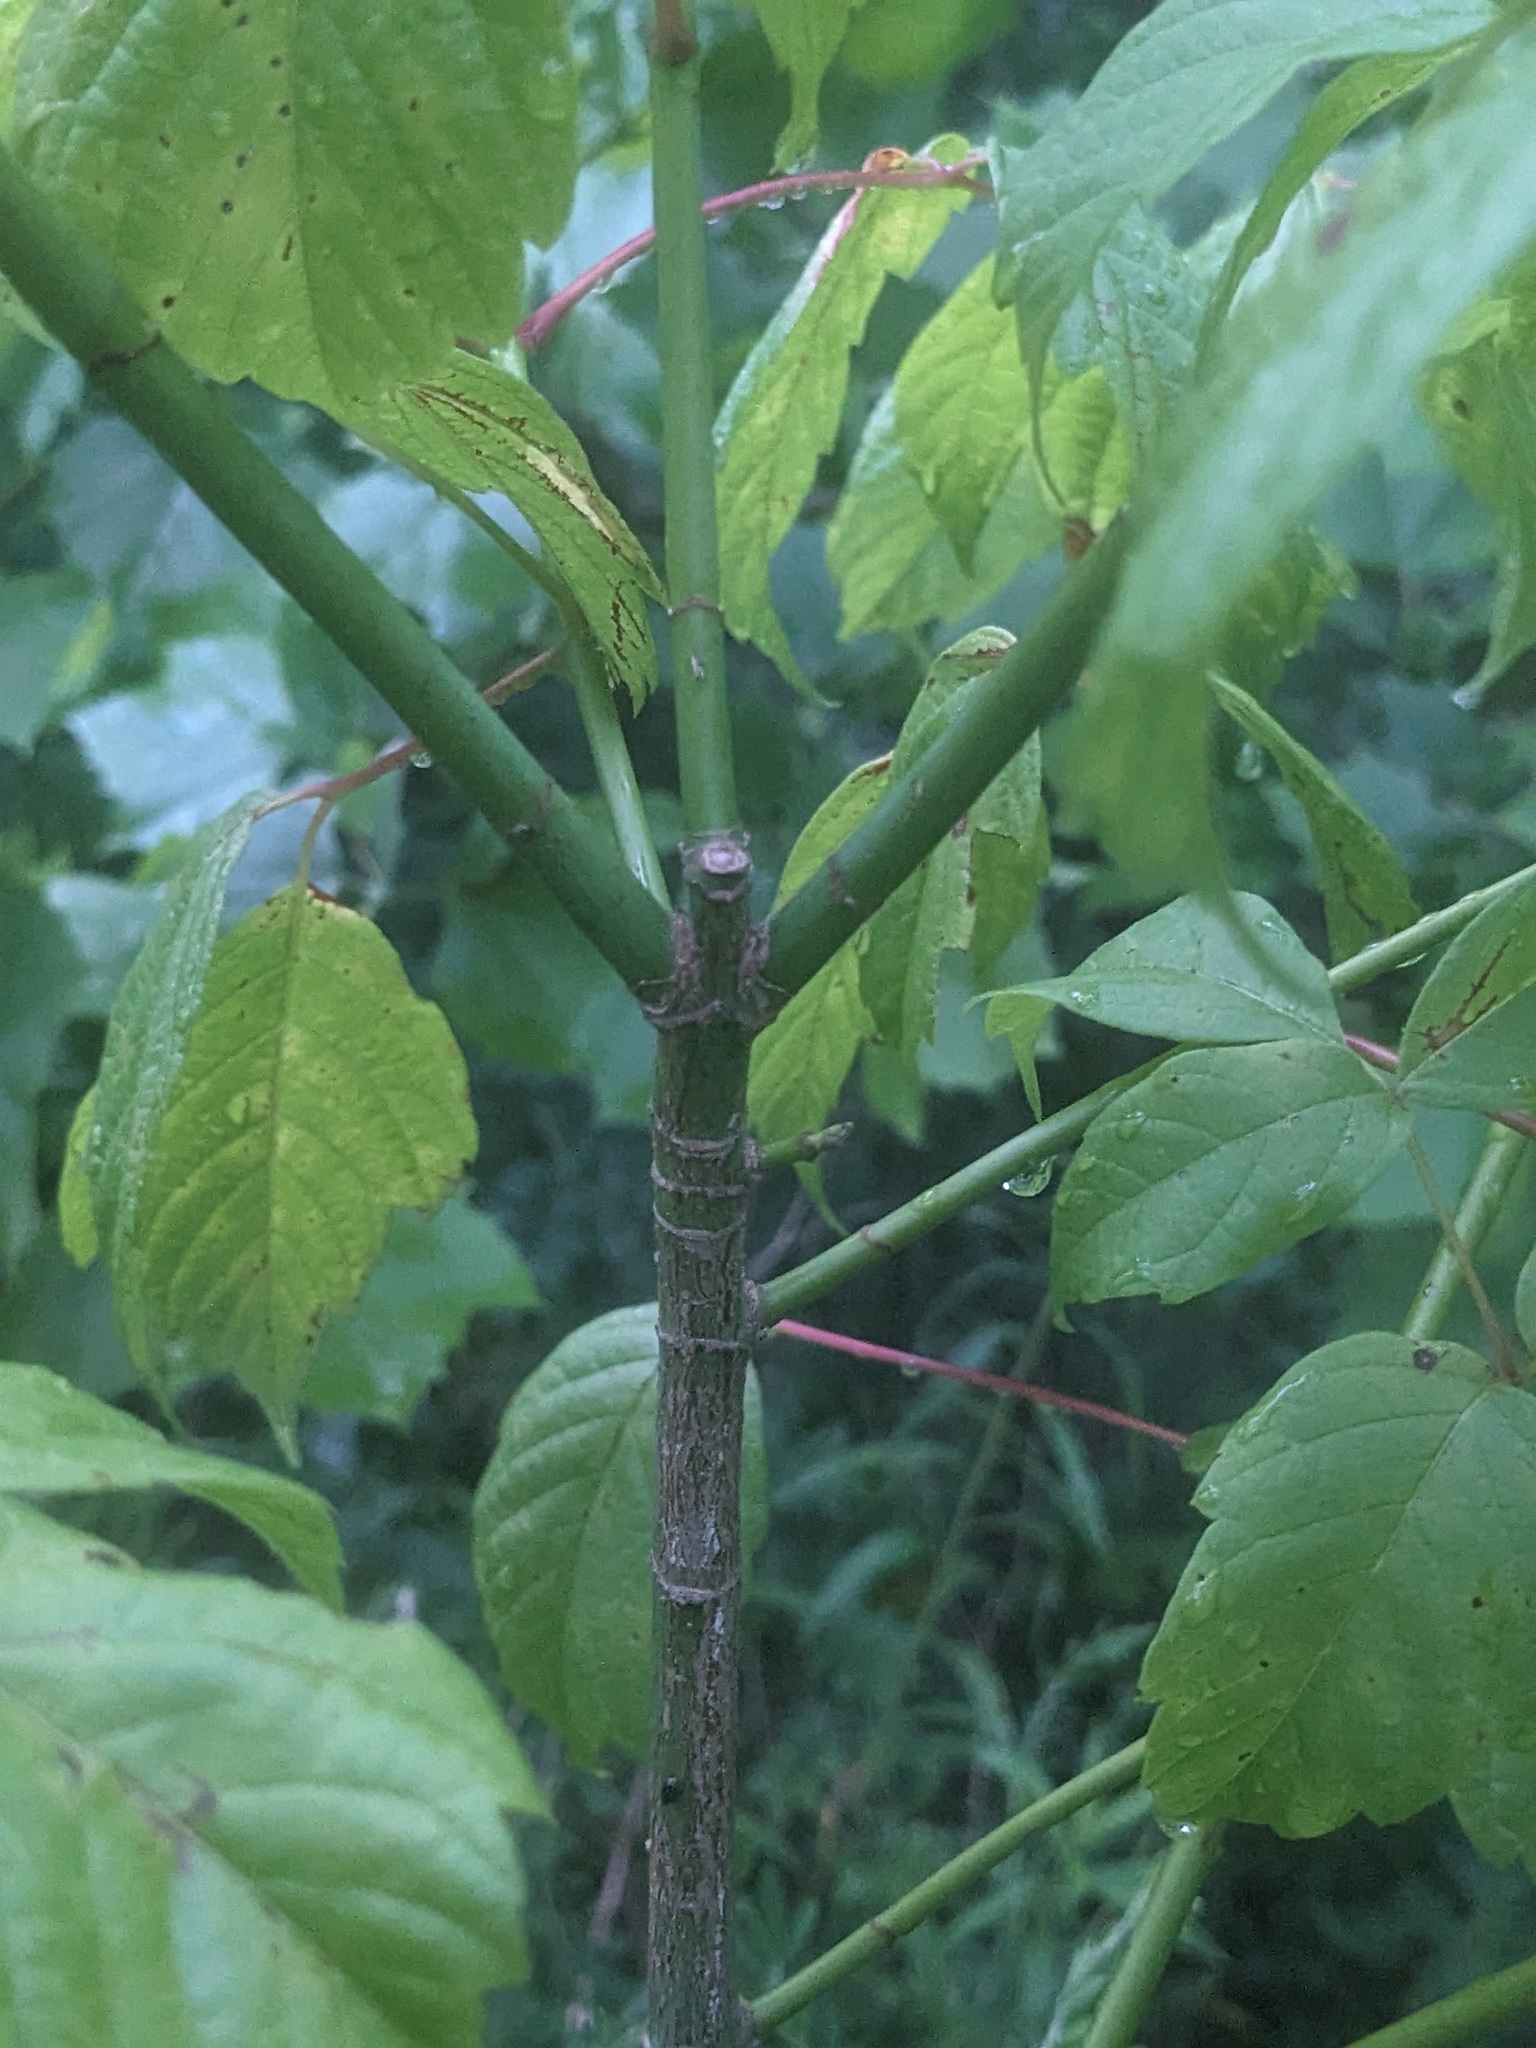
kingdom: Plantae
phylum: Tracheophyta
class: Magnoliopsida
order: Sapindales
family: Sapindaceae
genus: Acer
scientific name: Acer negundo
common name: Ashleaf maple
